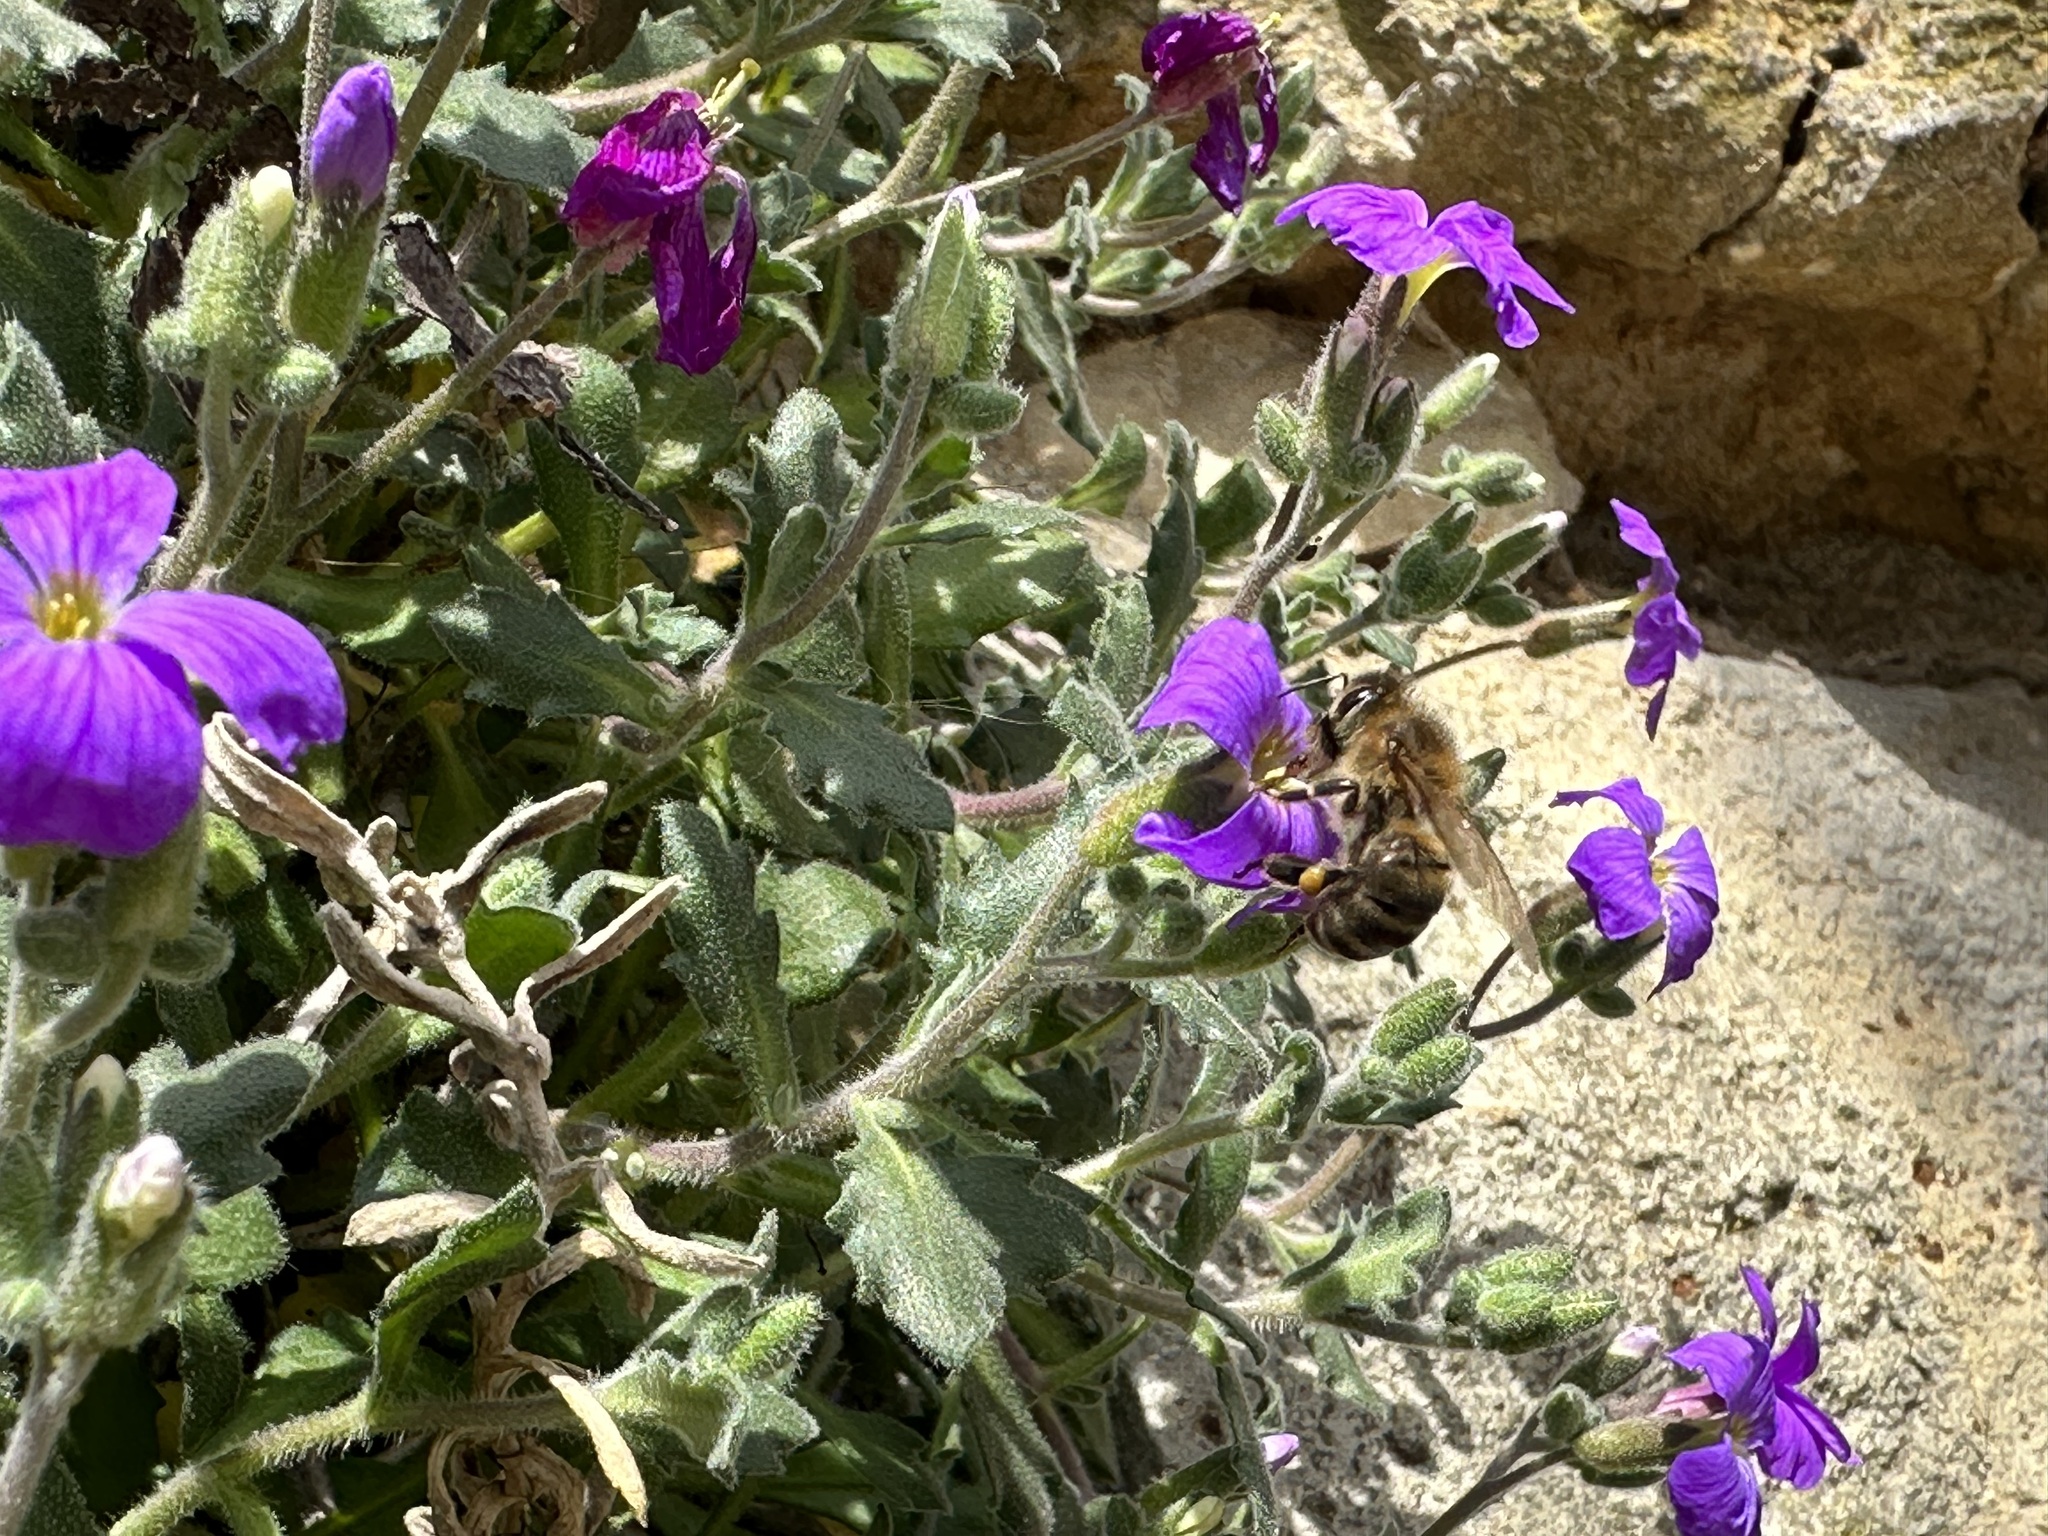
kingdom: Animalia
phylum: Arthropoda
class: Insecta
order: Hymenoptera
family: Apidae
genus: Apis
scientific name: Apis mellifera
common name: Honey bee
